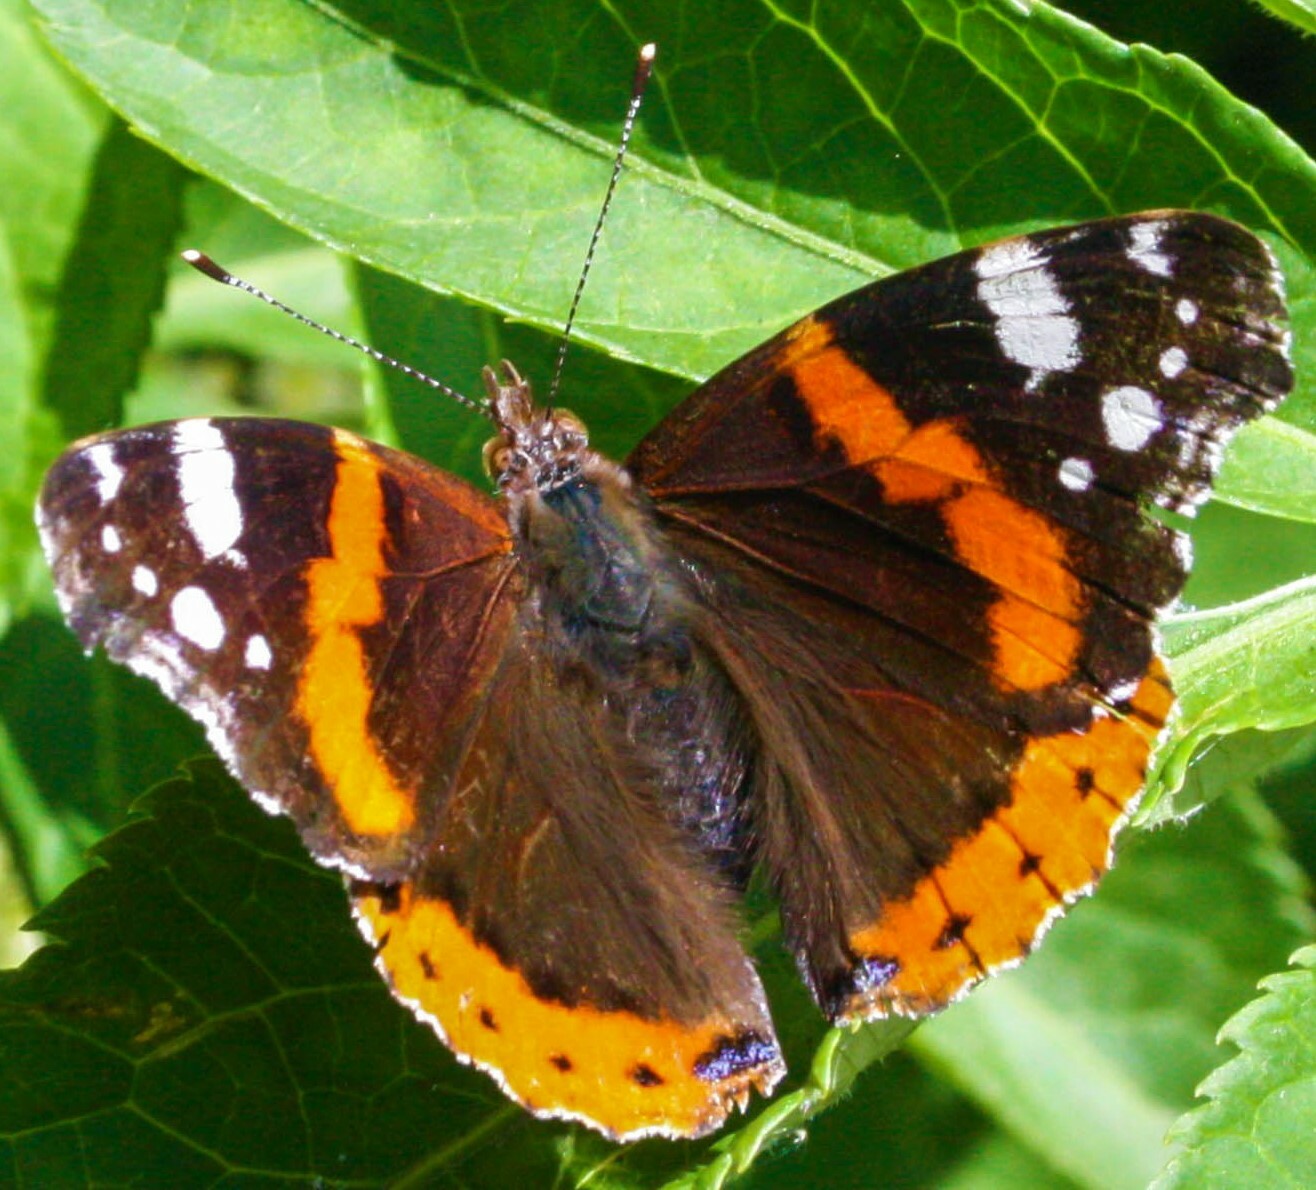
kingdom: Animalia
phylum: Arthropoda
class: Insecta
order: Lepidoptera
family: Nymphalidae
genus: Vanessa
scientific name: Vanessa atalanta
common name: Red admiral
